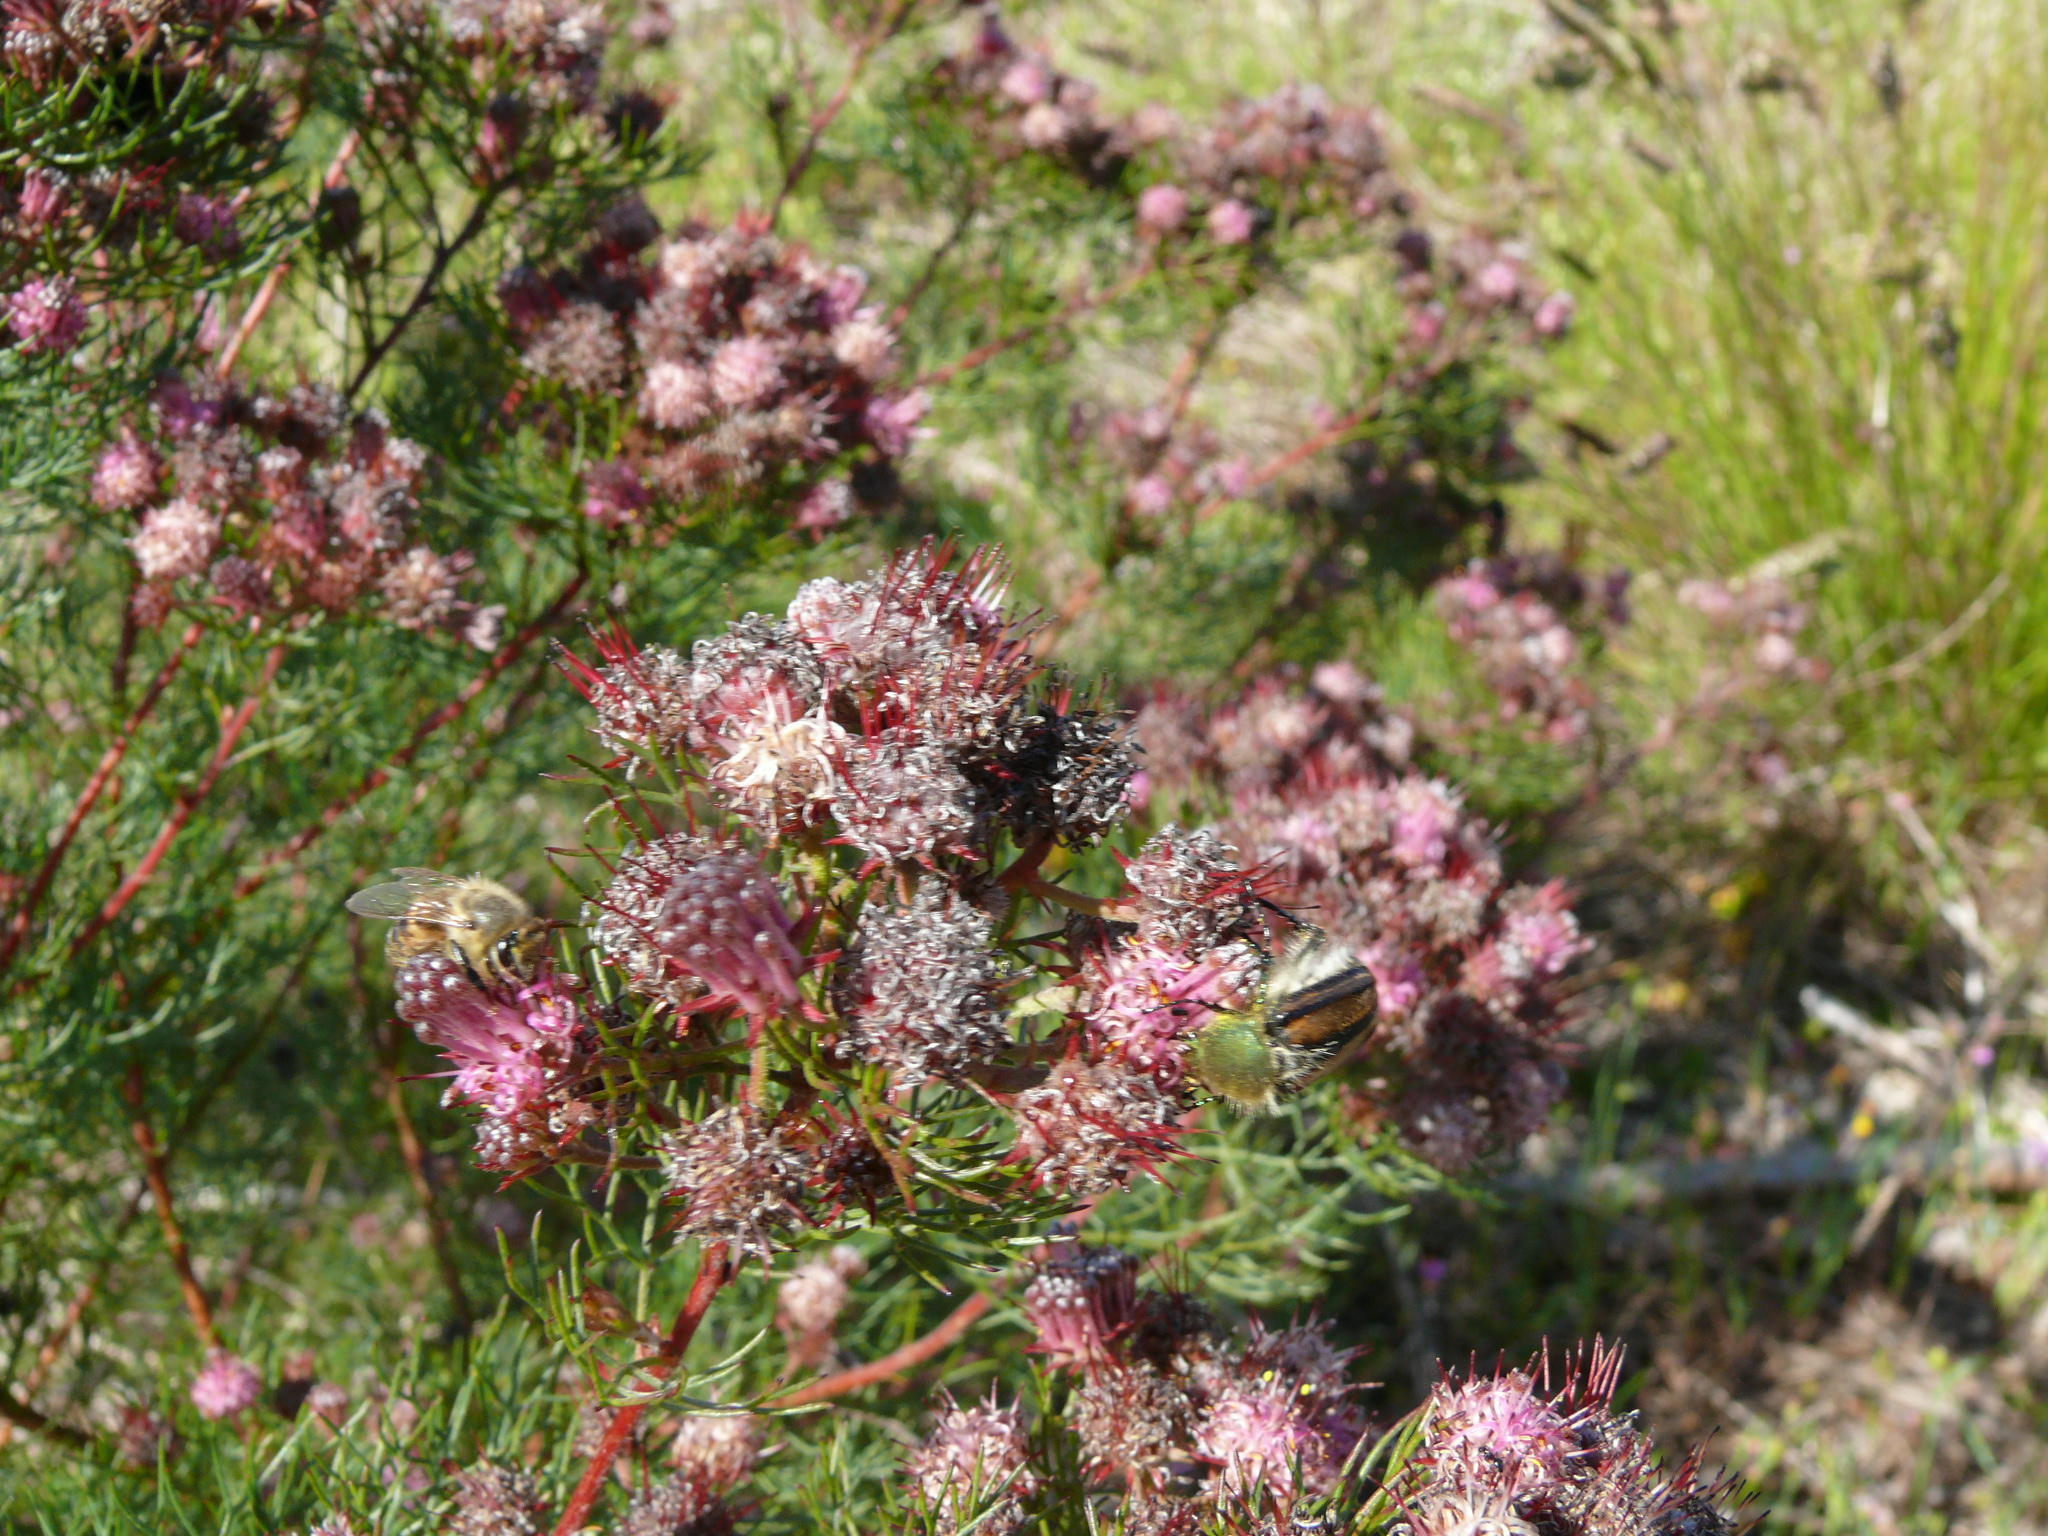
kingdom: Plantae
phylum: Tracheophyta
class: Magnoliopsida
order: Proteales
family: Proteaceae
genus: Serruria
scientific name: Serruria fasciflora
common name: Common pin spiderhead
